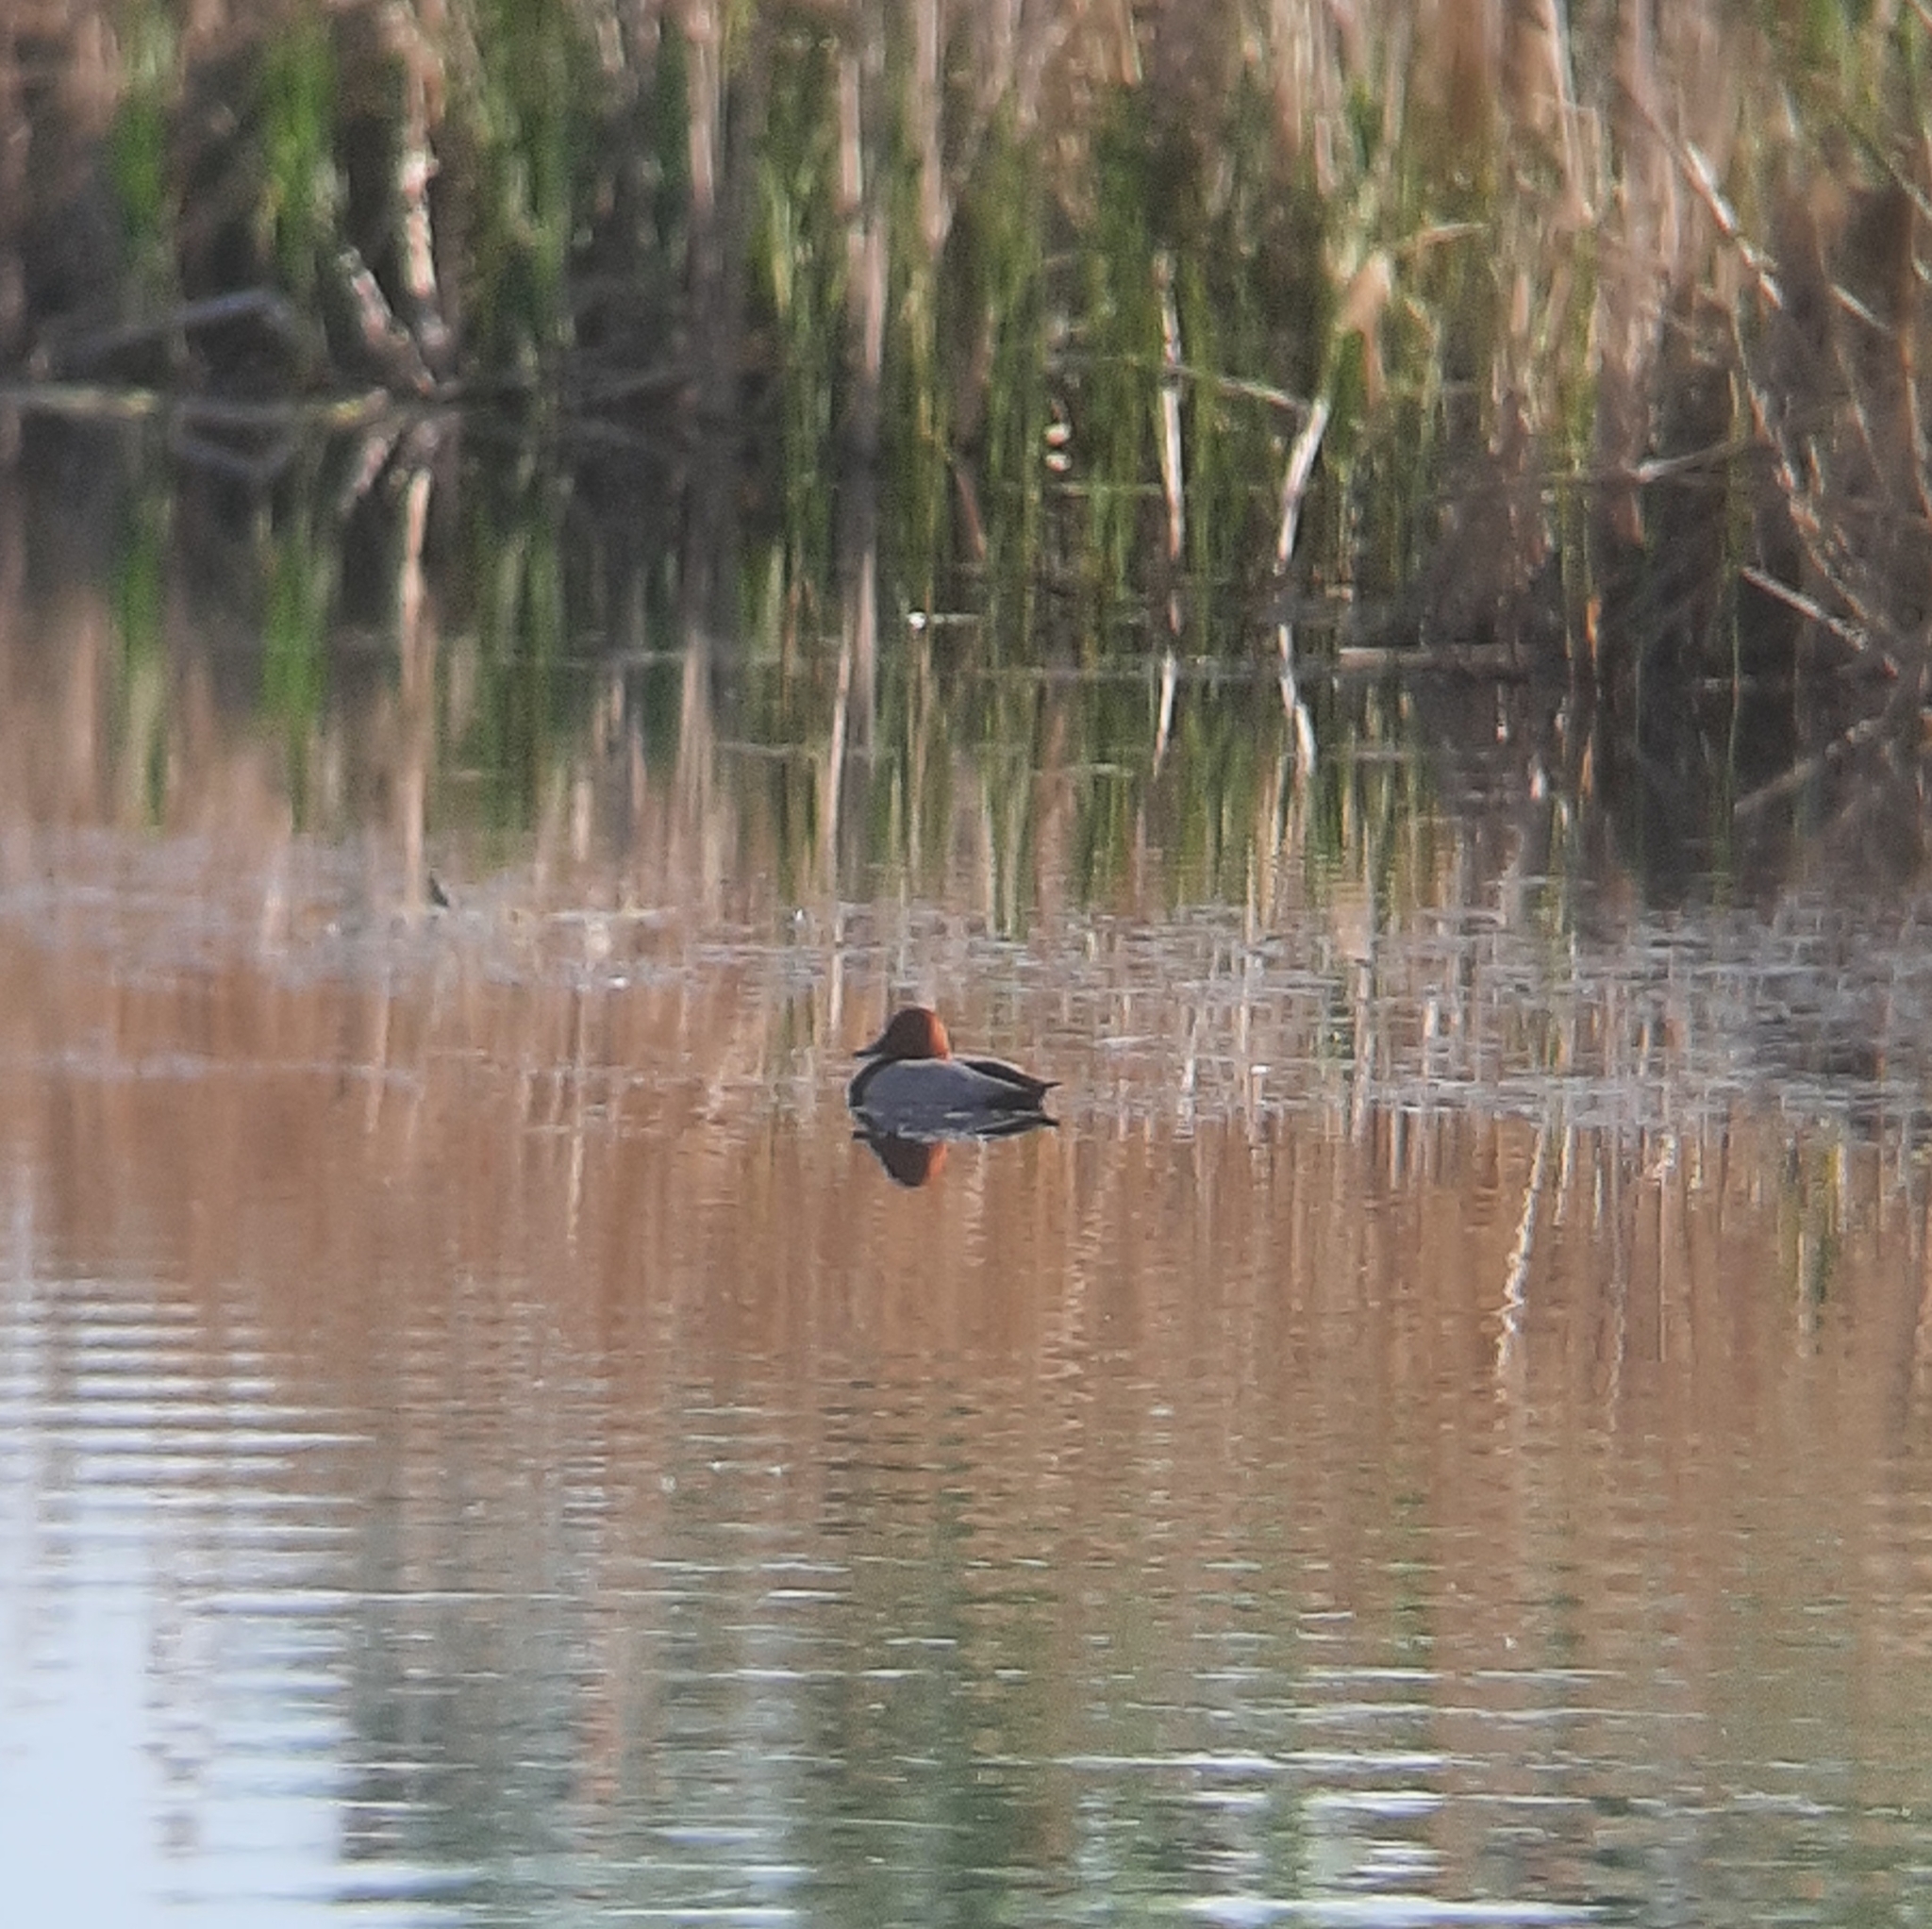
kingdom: Animalia
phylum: Chordata
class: Aves
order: Anseriformes
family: Anatidae
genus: Aythya
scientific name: Aythya ferina
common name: Common pochard
